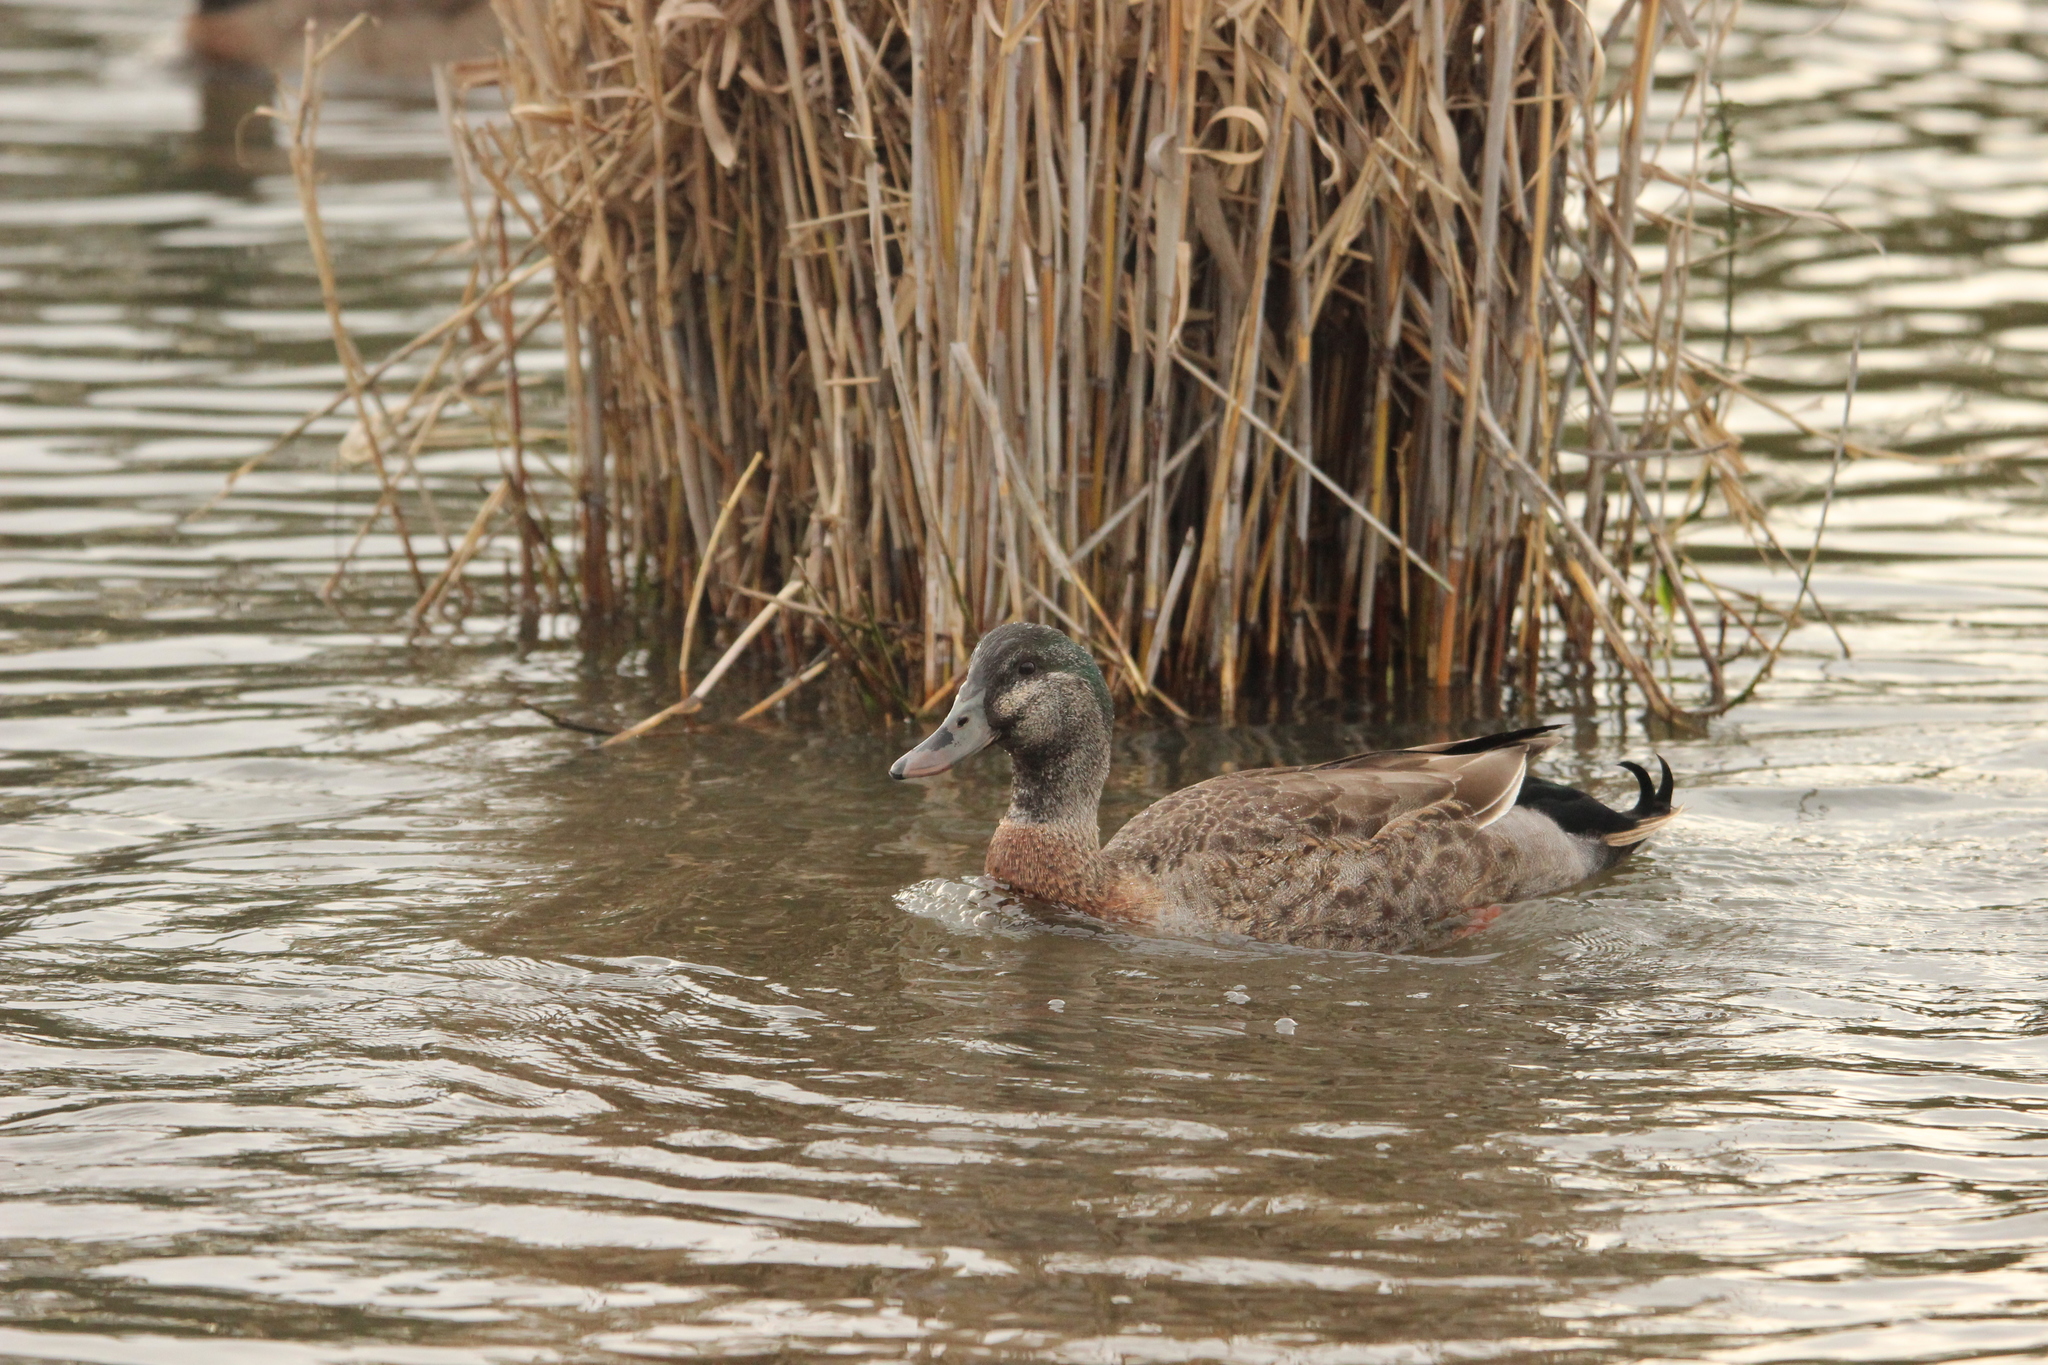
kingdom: Animalia
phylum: Chordata
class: Aves
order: Anseriformes
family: Anatidae
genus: Anas
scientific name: Anas platyrhynchos
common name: Mallard
